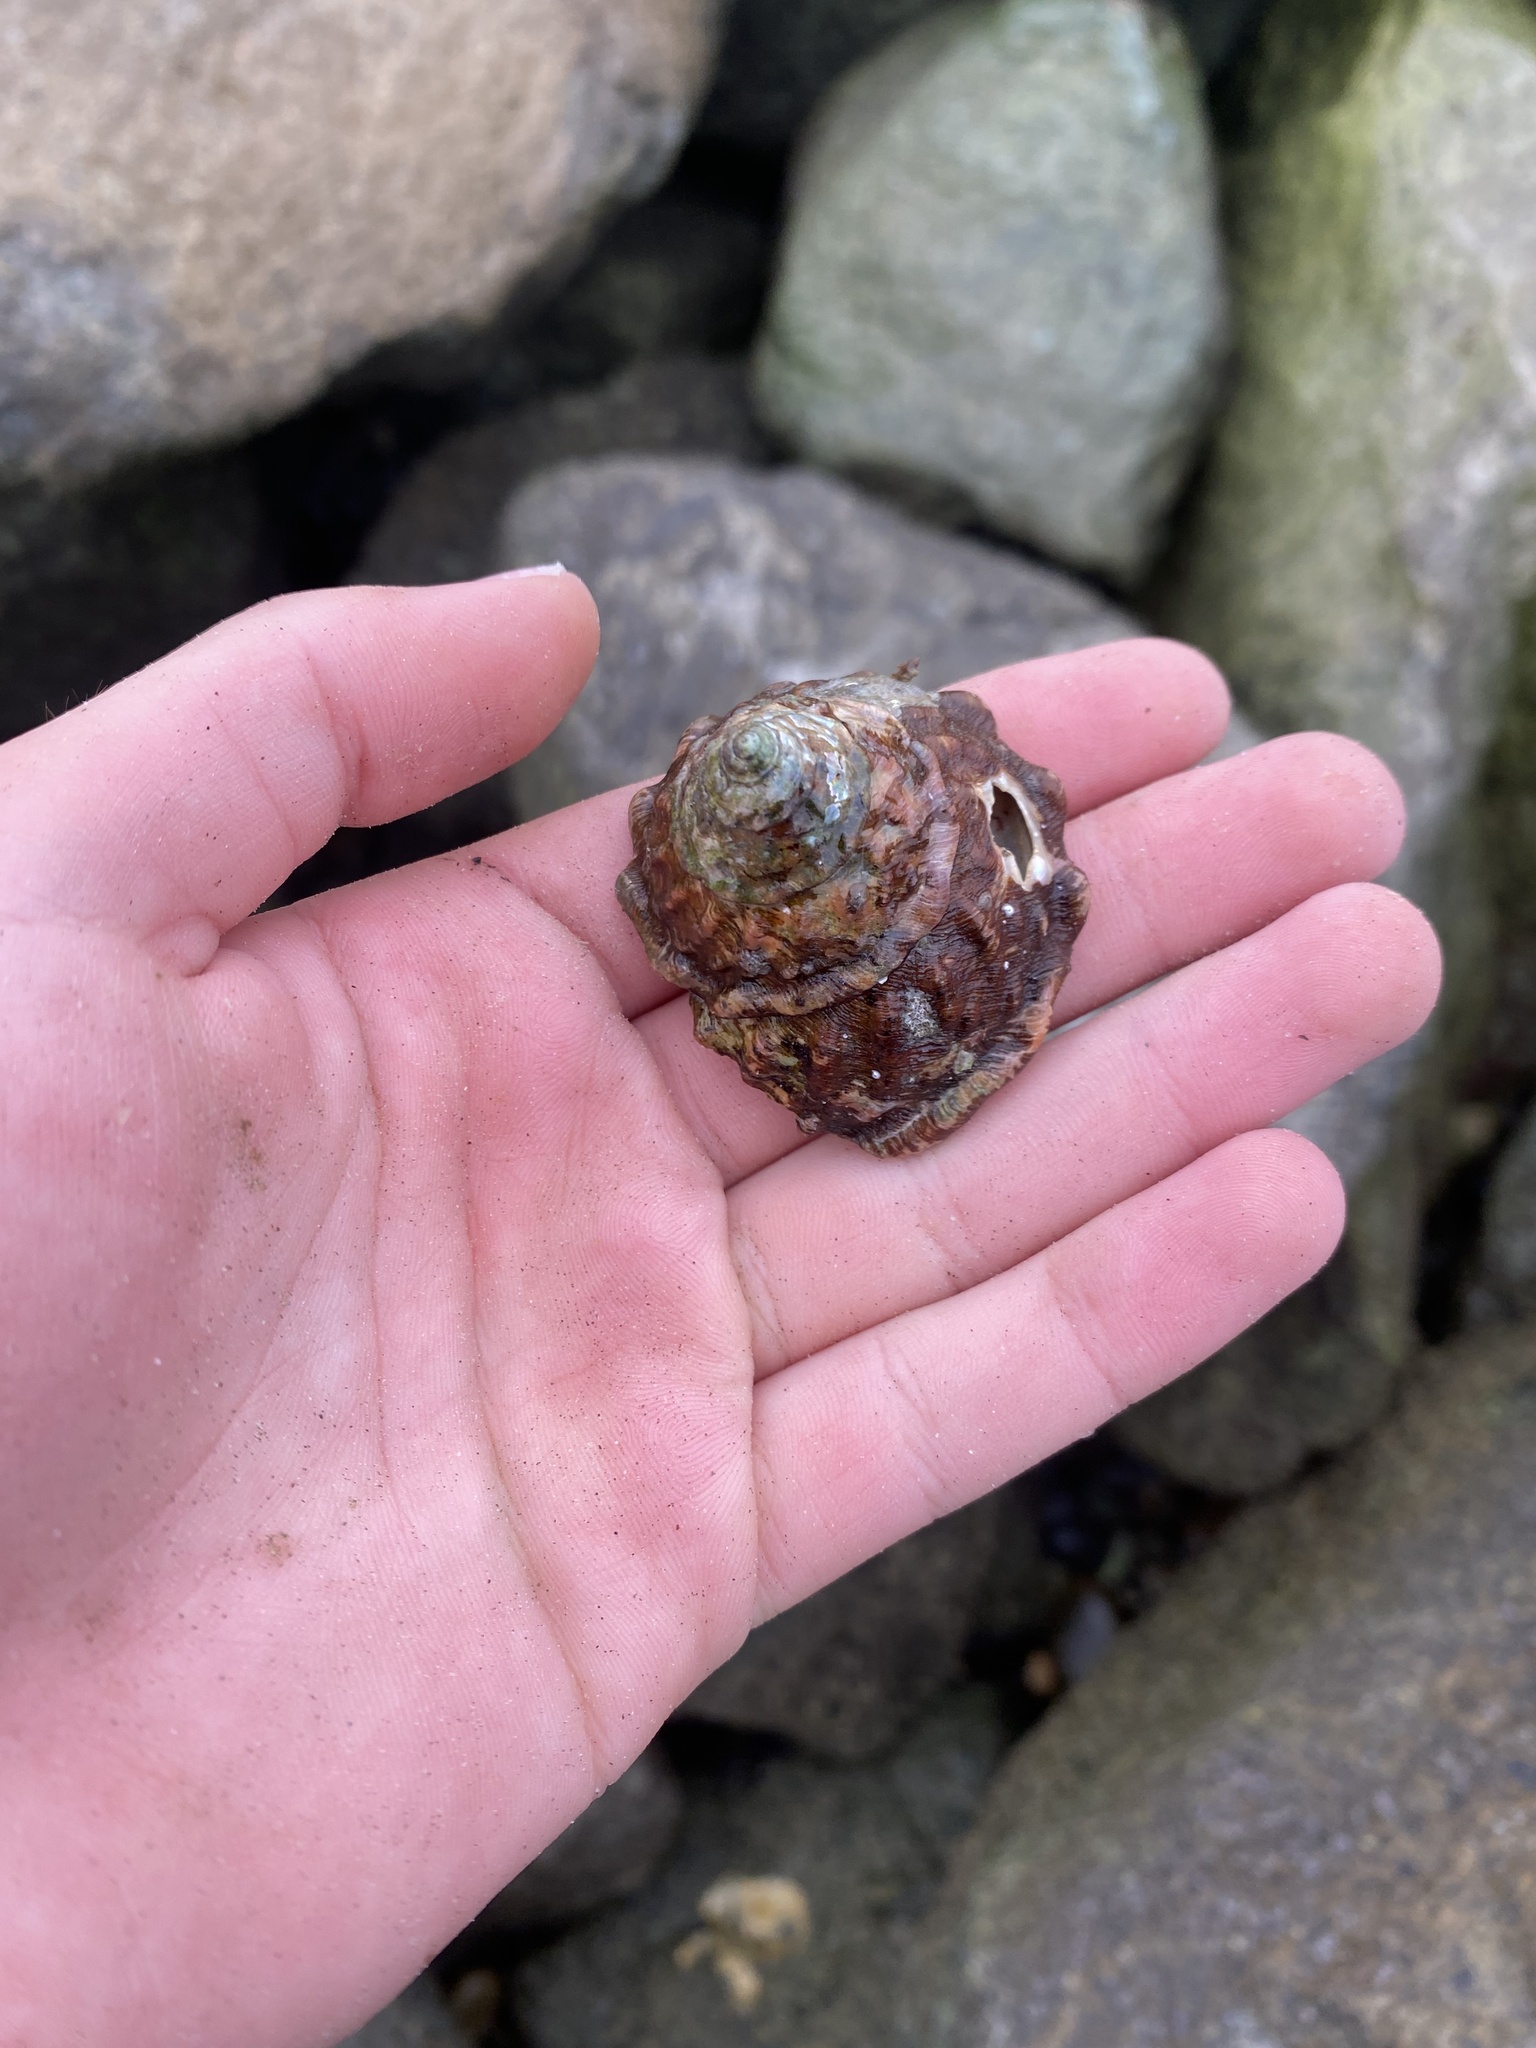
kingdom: Animalia
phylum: Mollusca
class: Gastropoda
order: Trochida
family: Turbinidae
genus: Megastraea
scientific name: Megastraea undosa
